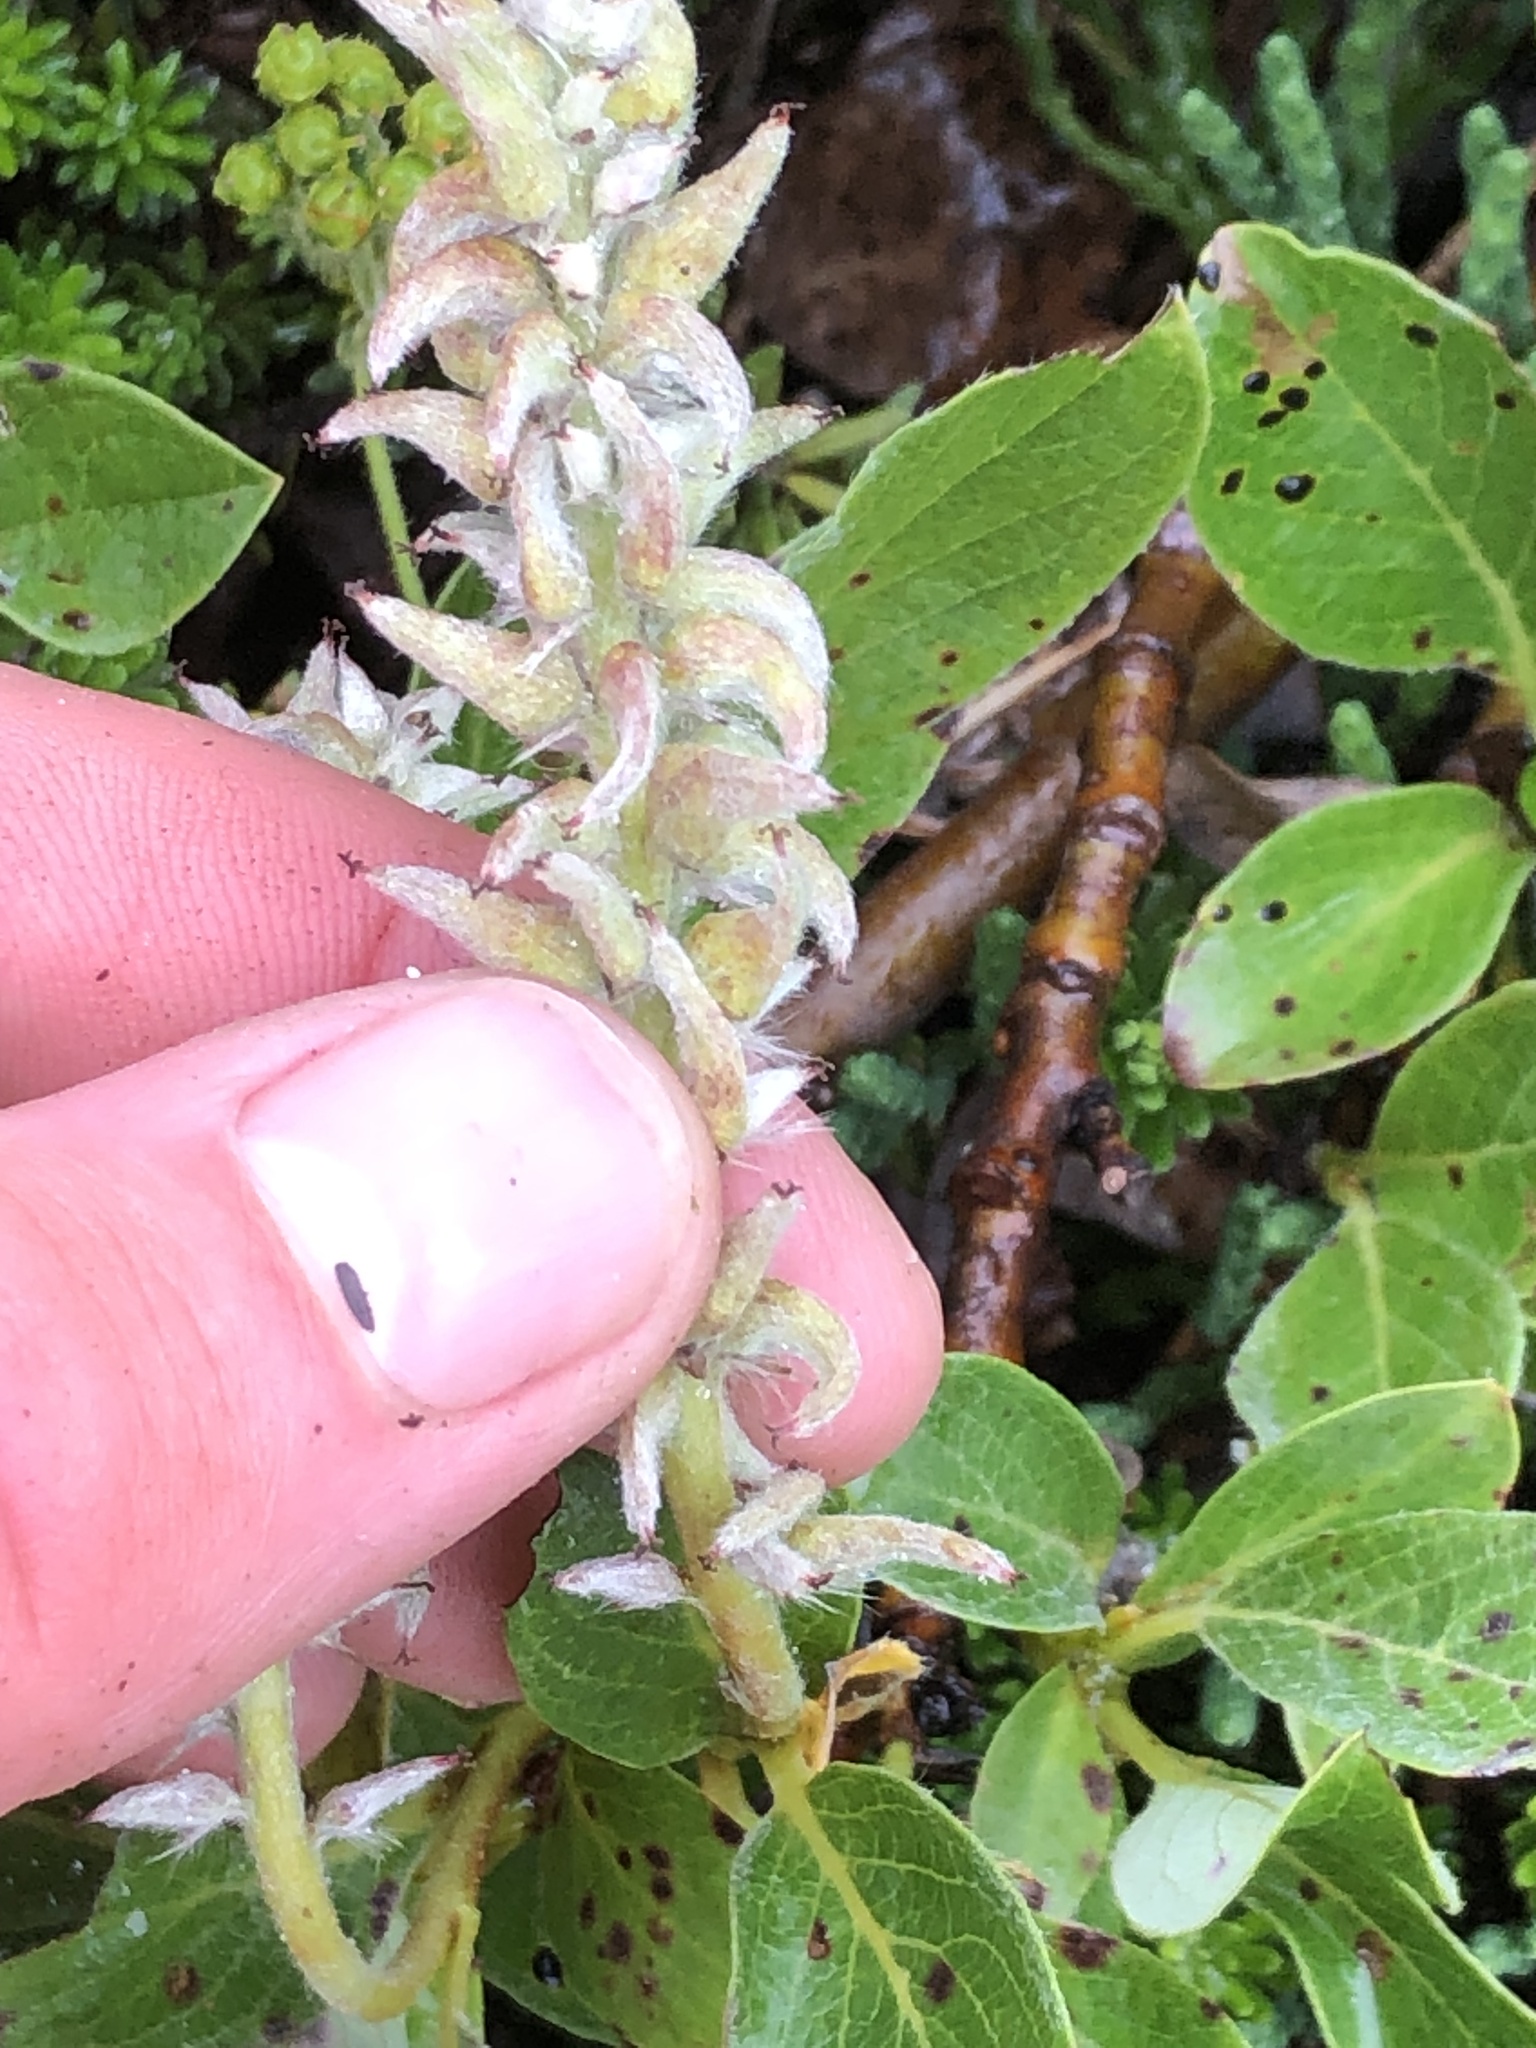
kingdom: Plantae
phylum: Tracheophyta
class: Magnoliopsida
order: Malpighiales
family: Salicaceae
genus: Salix
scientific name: Salix arctica
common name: Arctic willow
